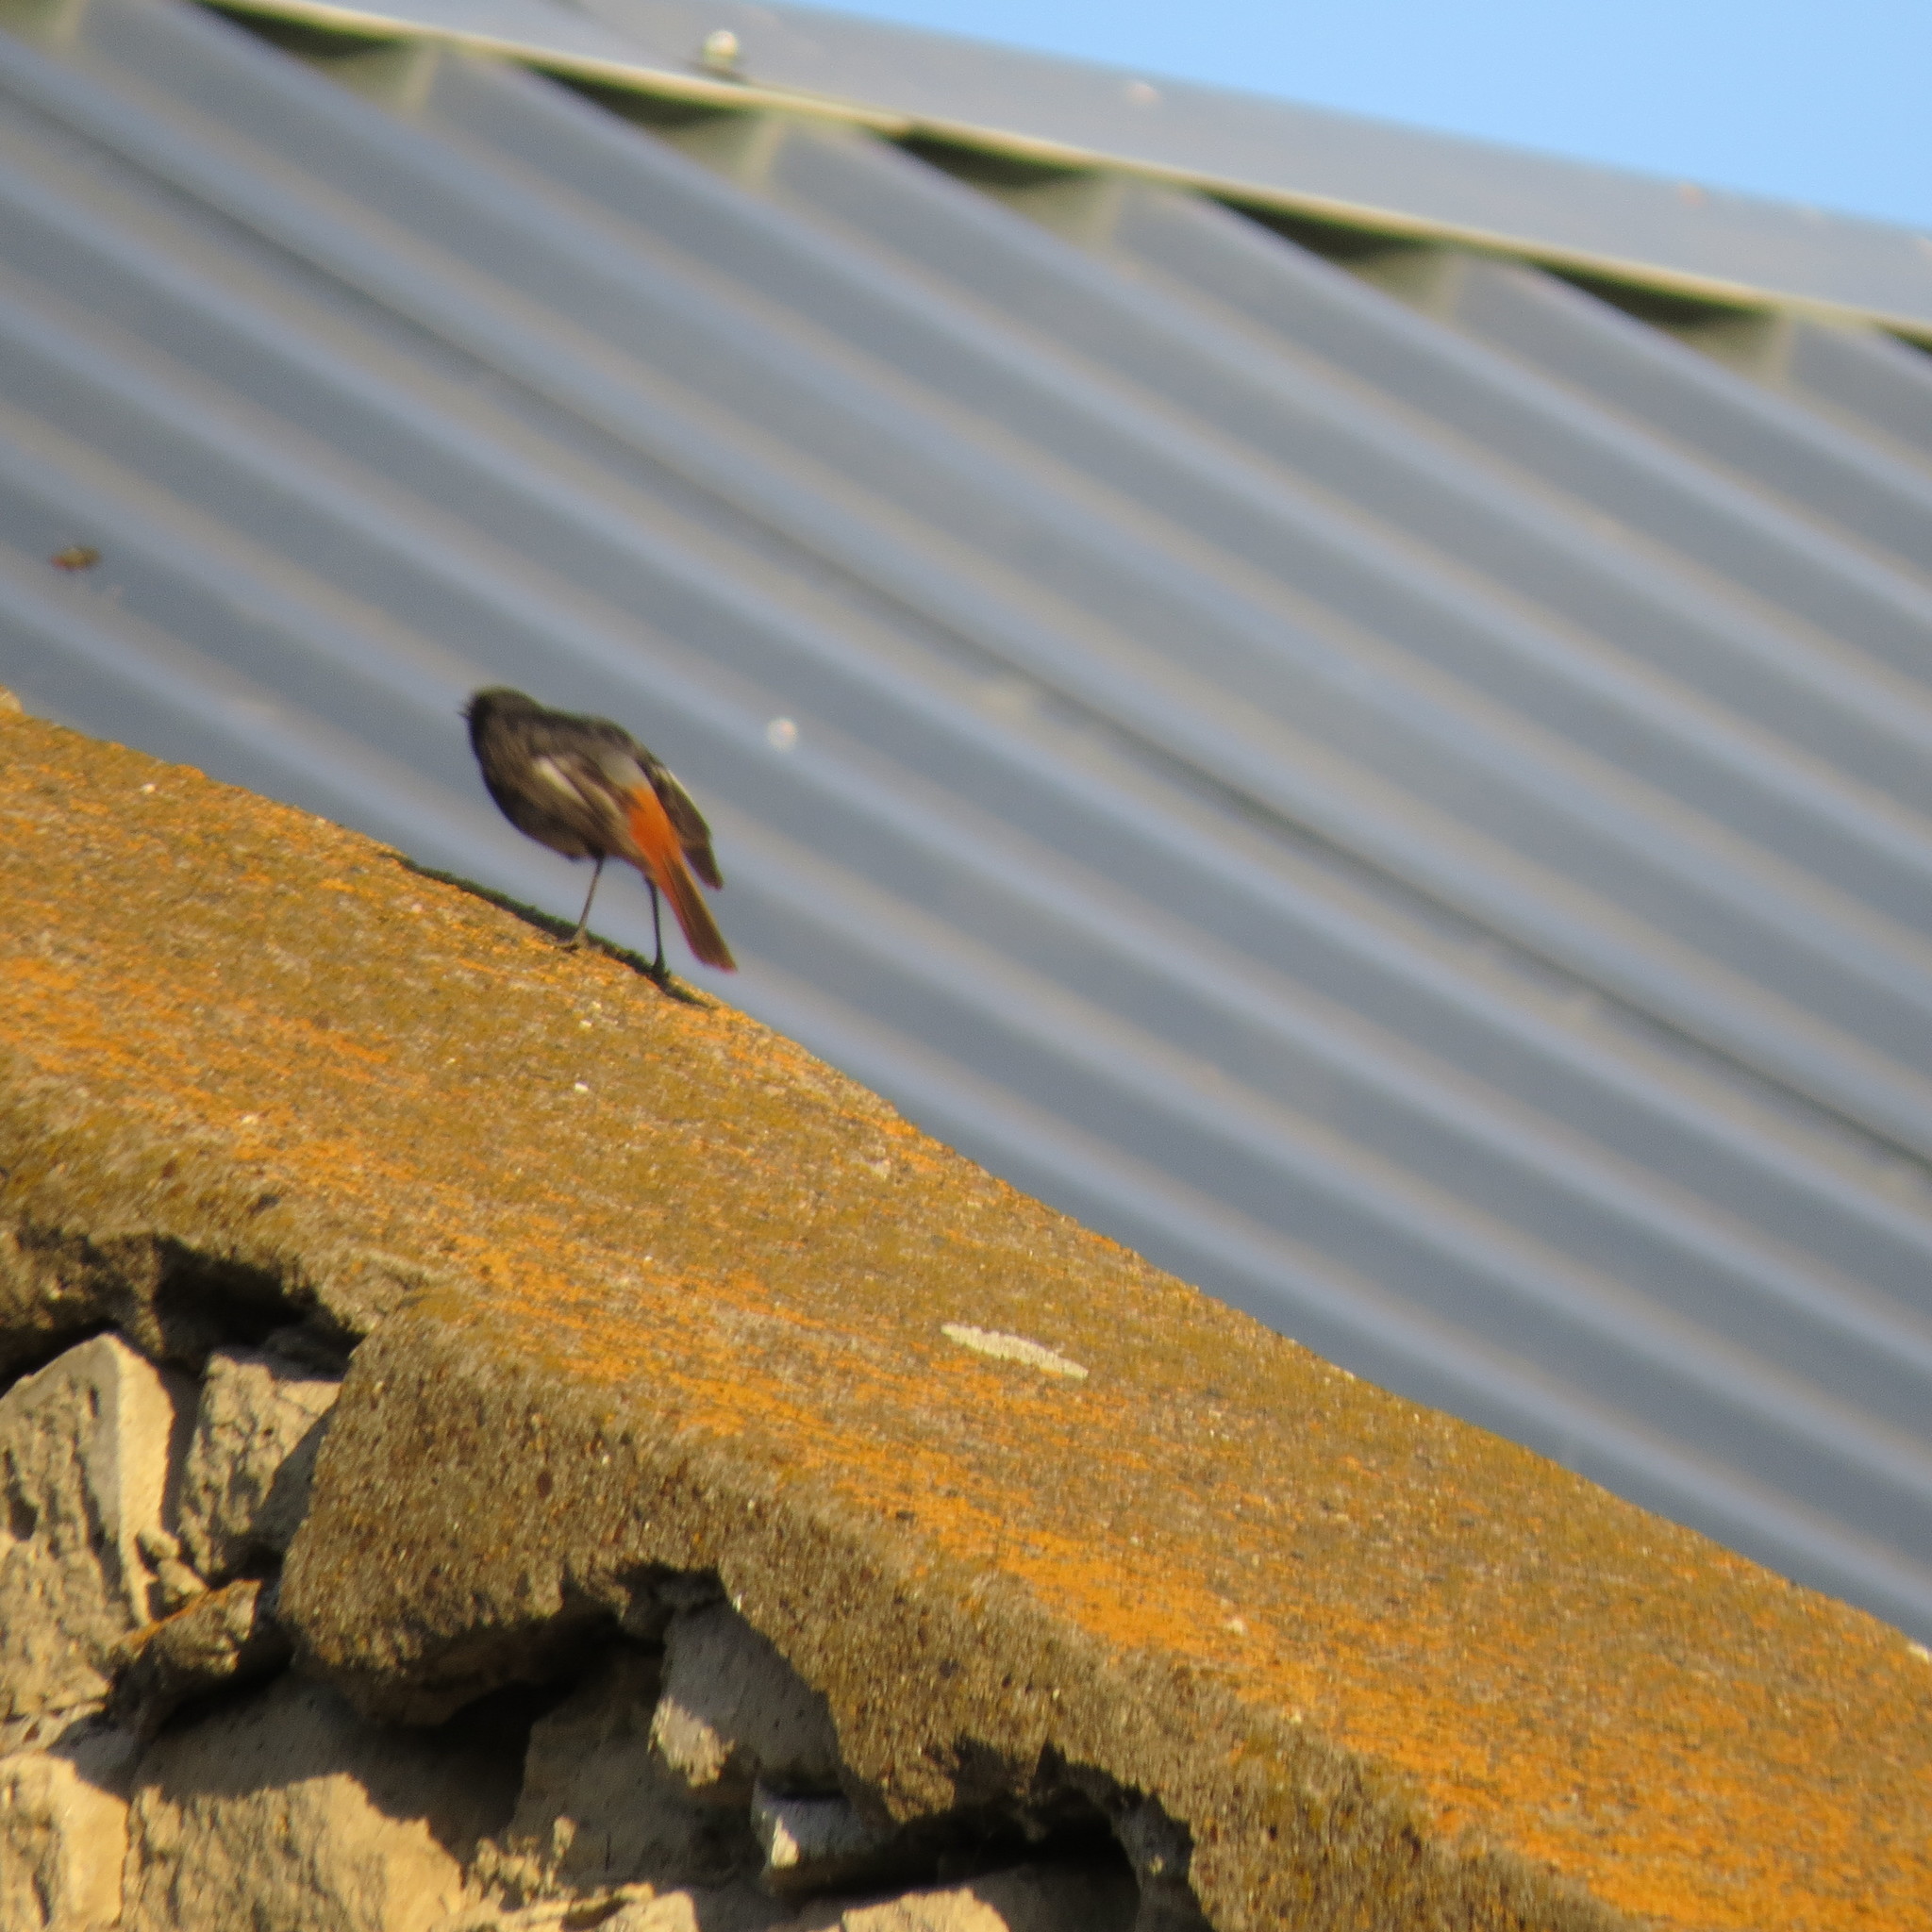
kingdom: Animalia
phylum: Chordata
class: Aves
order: Passeriformes
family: Muscicapidae
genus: Phoenicurus
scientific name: Phoenicurus ochruros
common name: Black redstart
